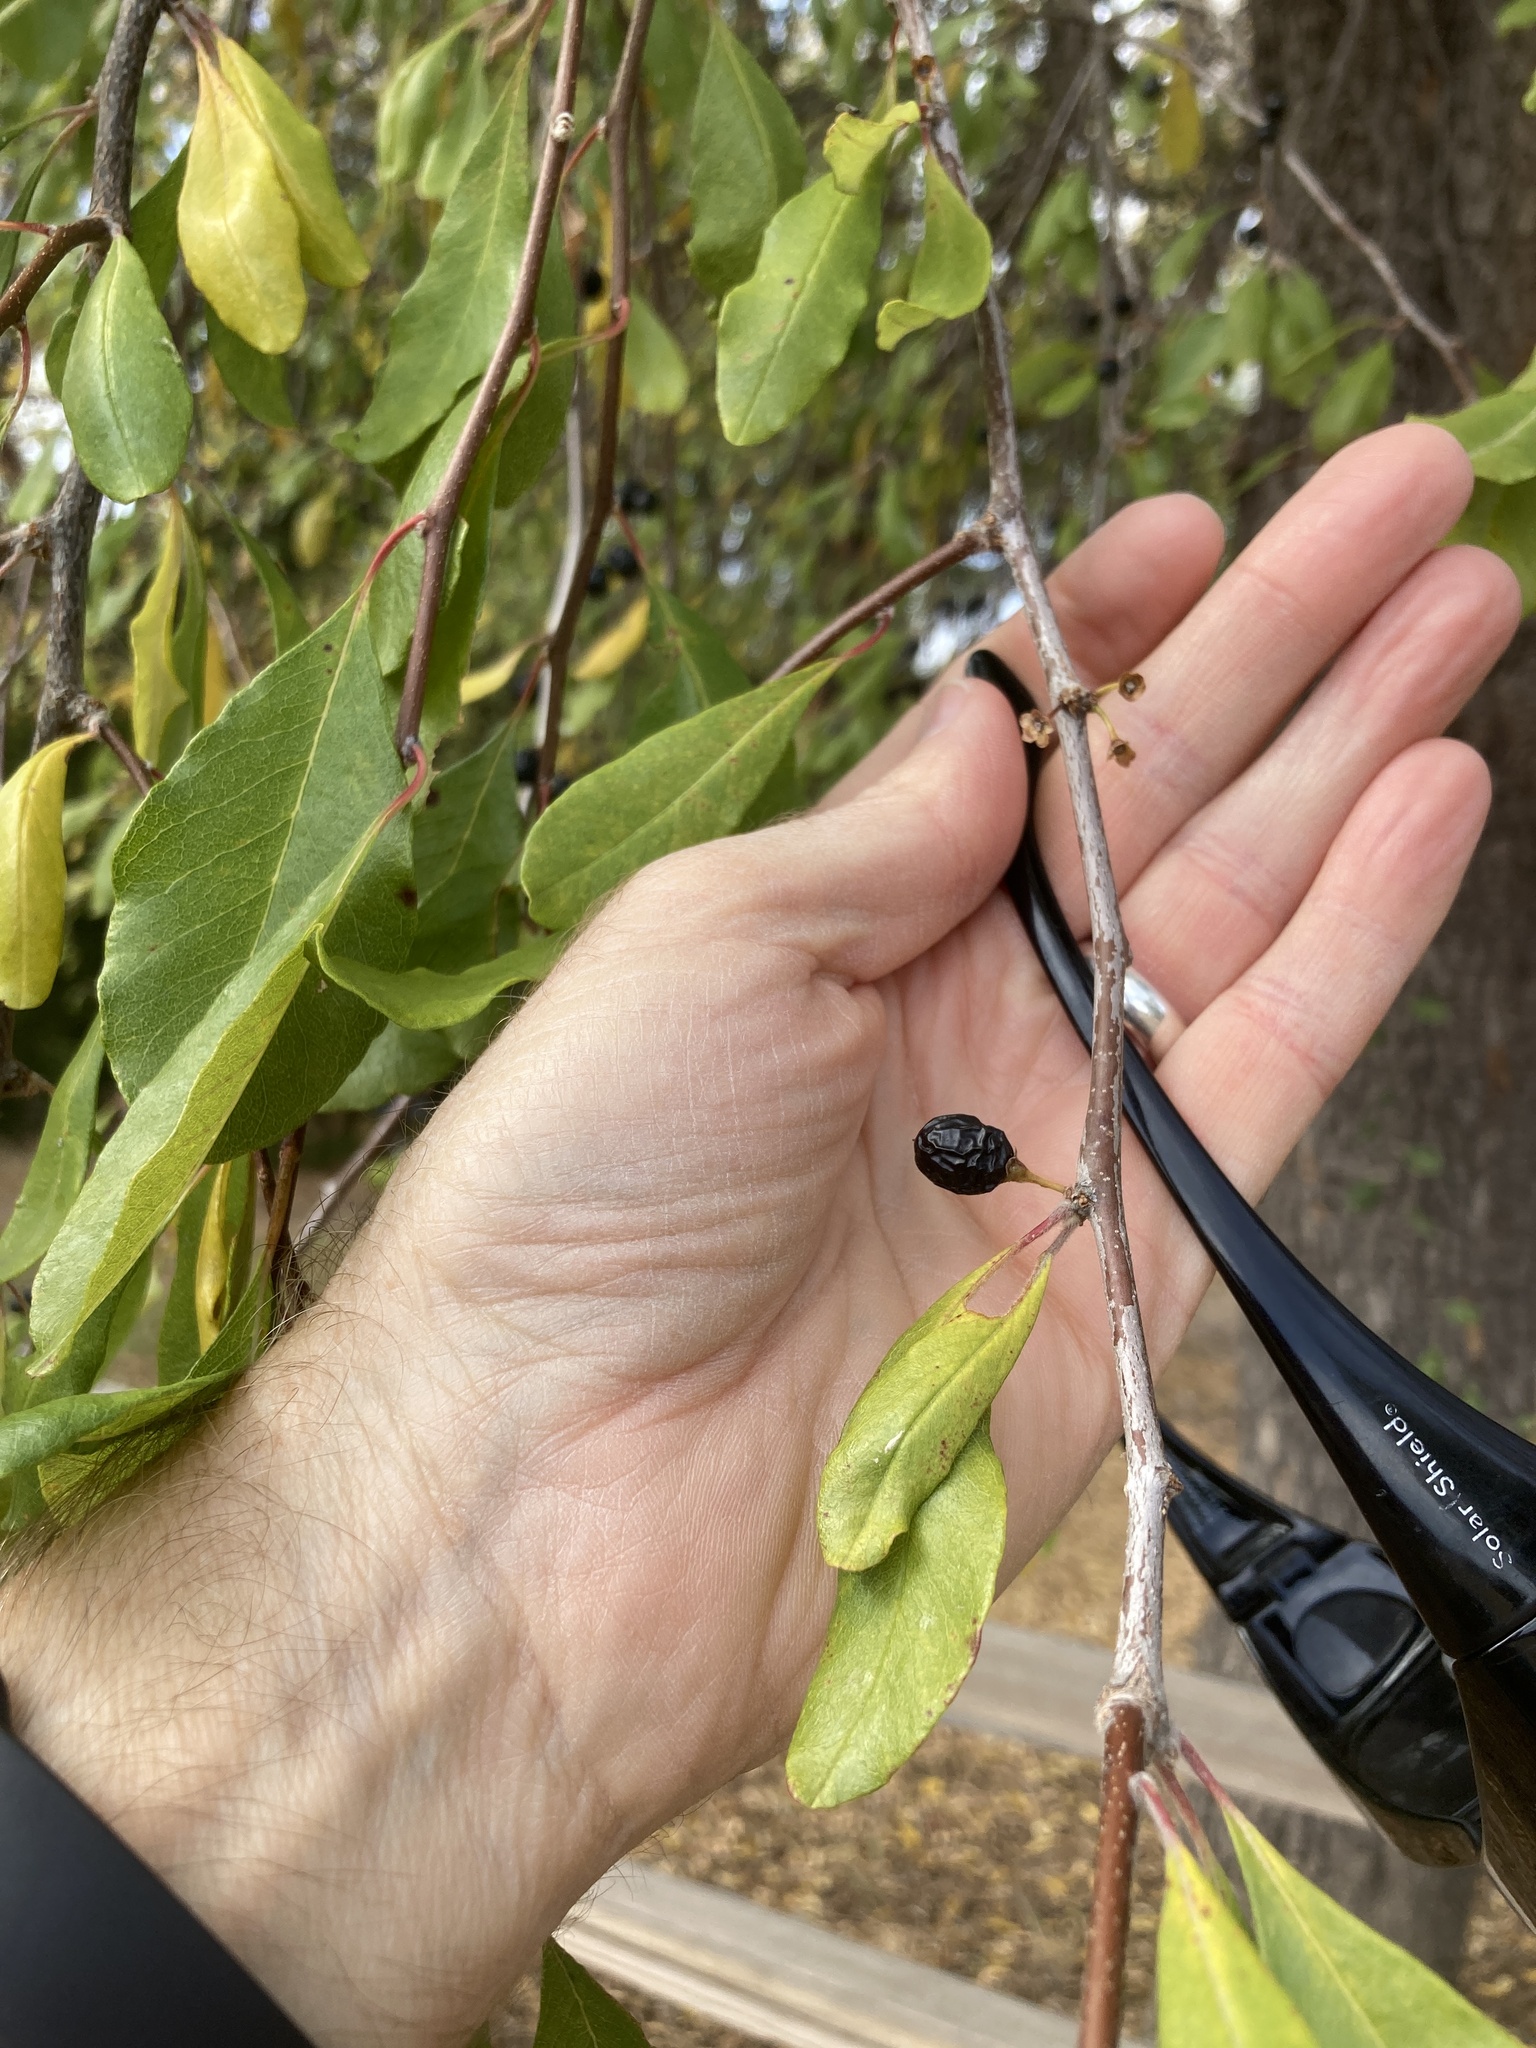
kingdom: Plantae
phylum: Tracheophyta
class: Magnoliopsida
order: Ericales
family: Sapotaceae
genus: Sideroxylon
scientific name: Sideroxylon lanuginosum
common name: Chittamwood
